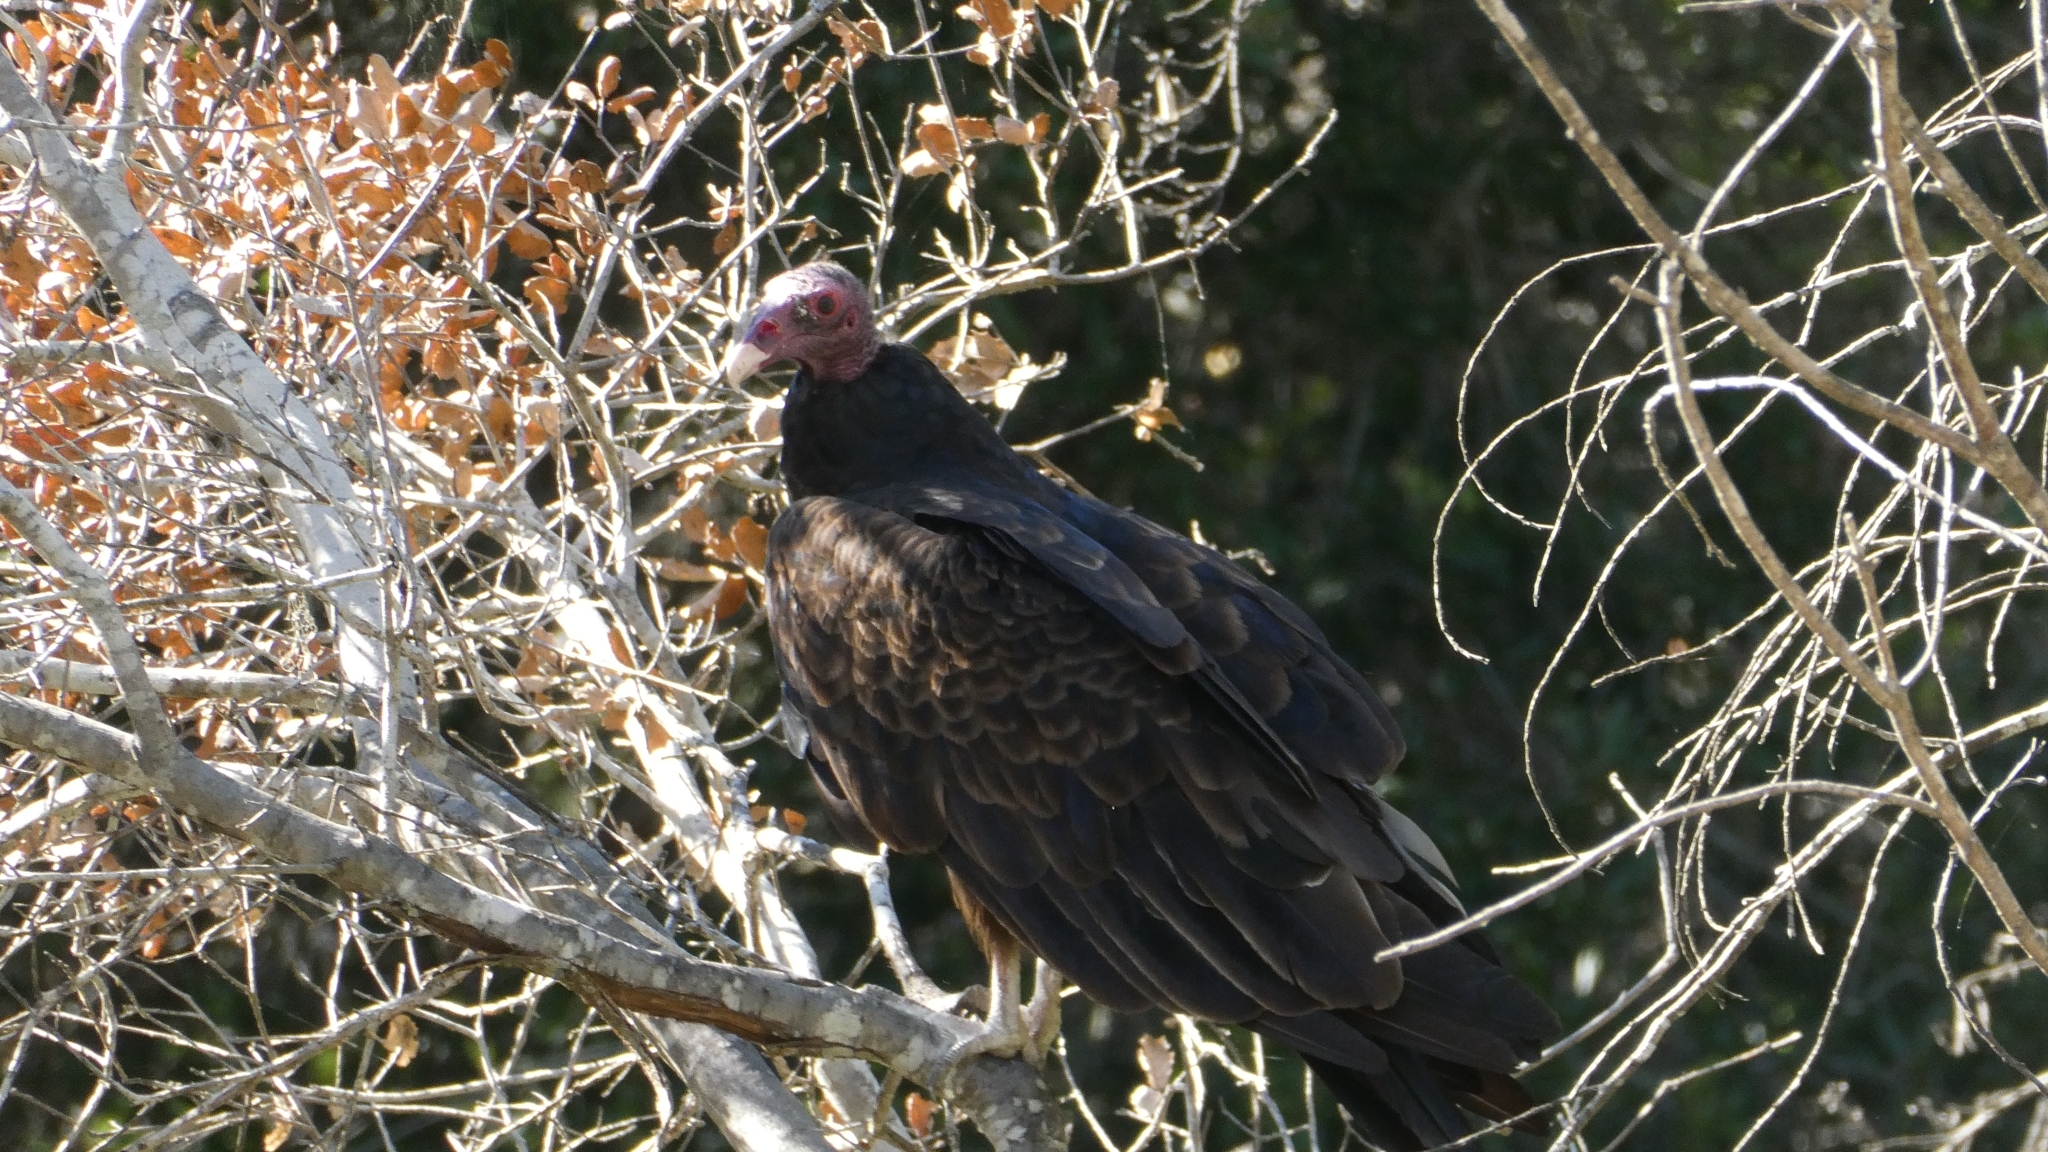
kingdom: Animalia
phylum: Chordata
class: Aves
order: Accipitriformes
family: Cathartidae
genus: Cathartes
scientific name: Cathartes aura
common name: Turkey vulture
